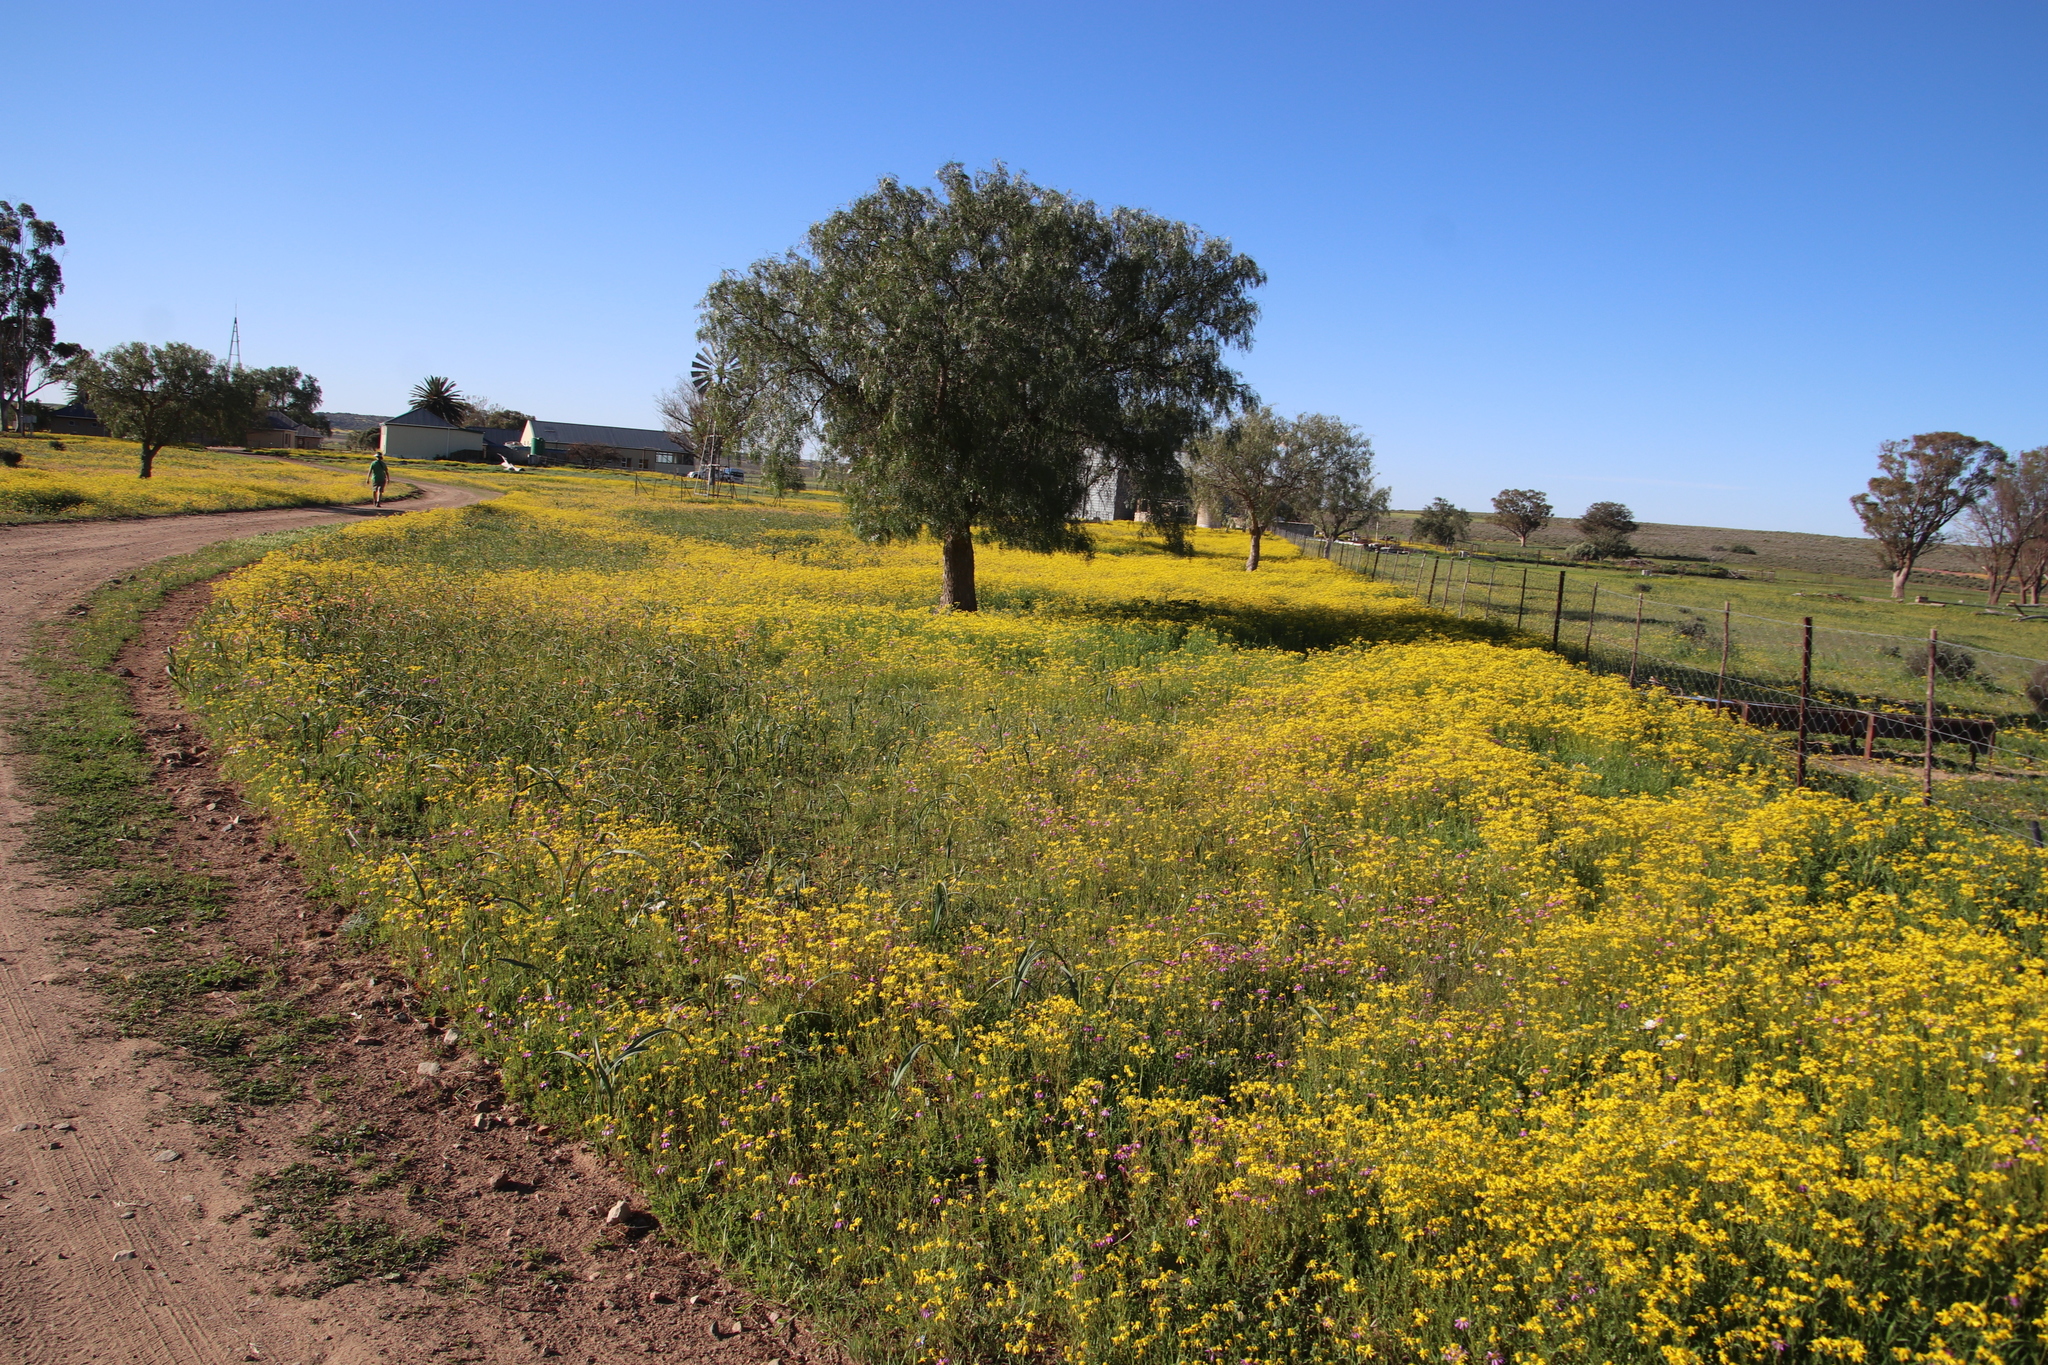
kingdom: Plantae
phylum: Tracheophyta
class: Magnoliopsida
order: Asterales
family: Asteraceae
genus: Senecio
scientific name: Senecio abruptus
